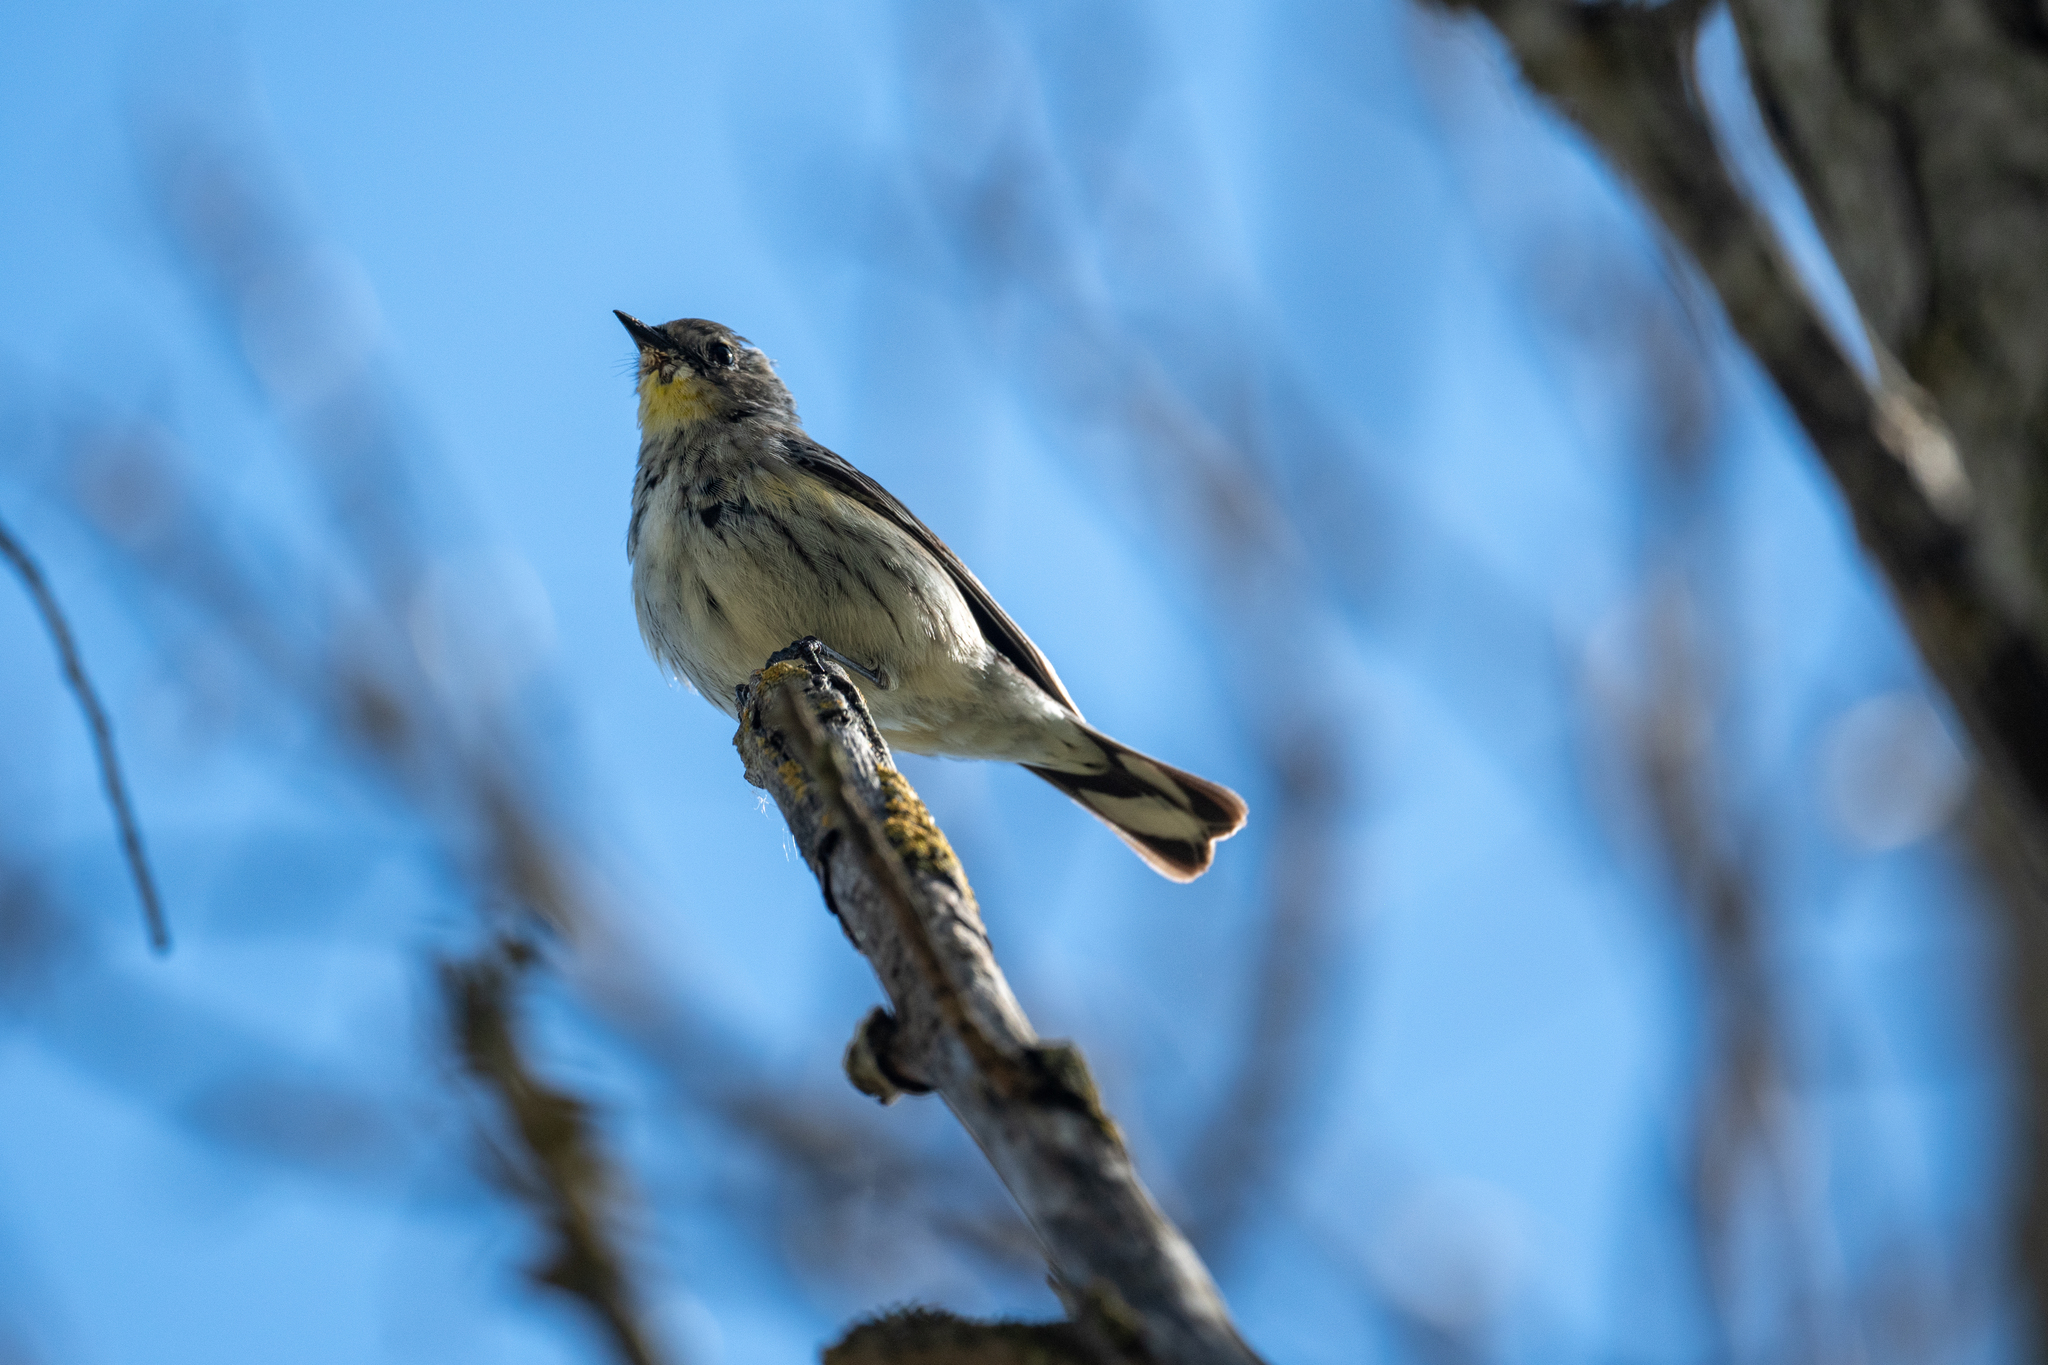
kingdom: Animalia
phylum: Chordata
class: Aves
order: Passeriformes
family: Parulidae
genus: Setophaga
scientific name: Setophaga coronata
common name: Myrtle warbler
